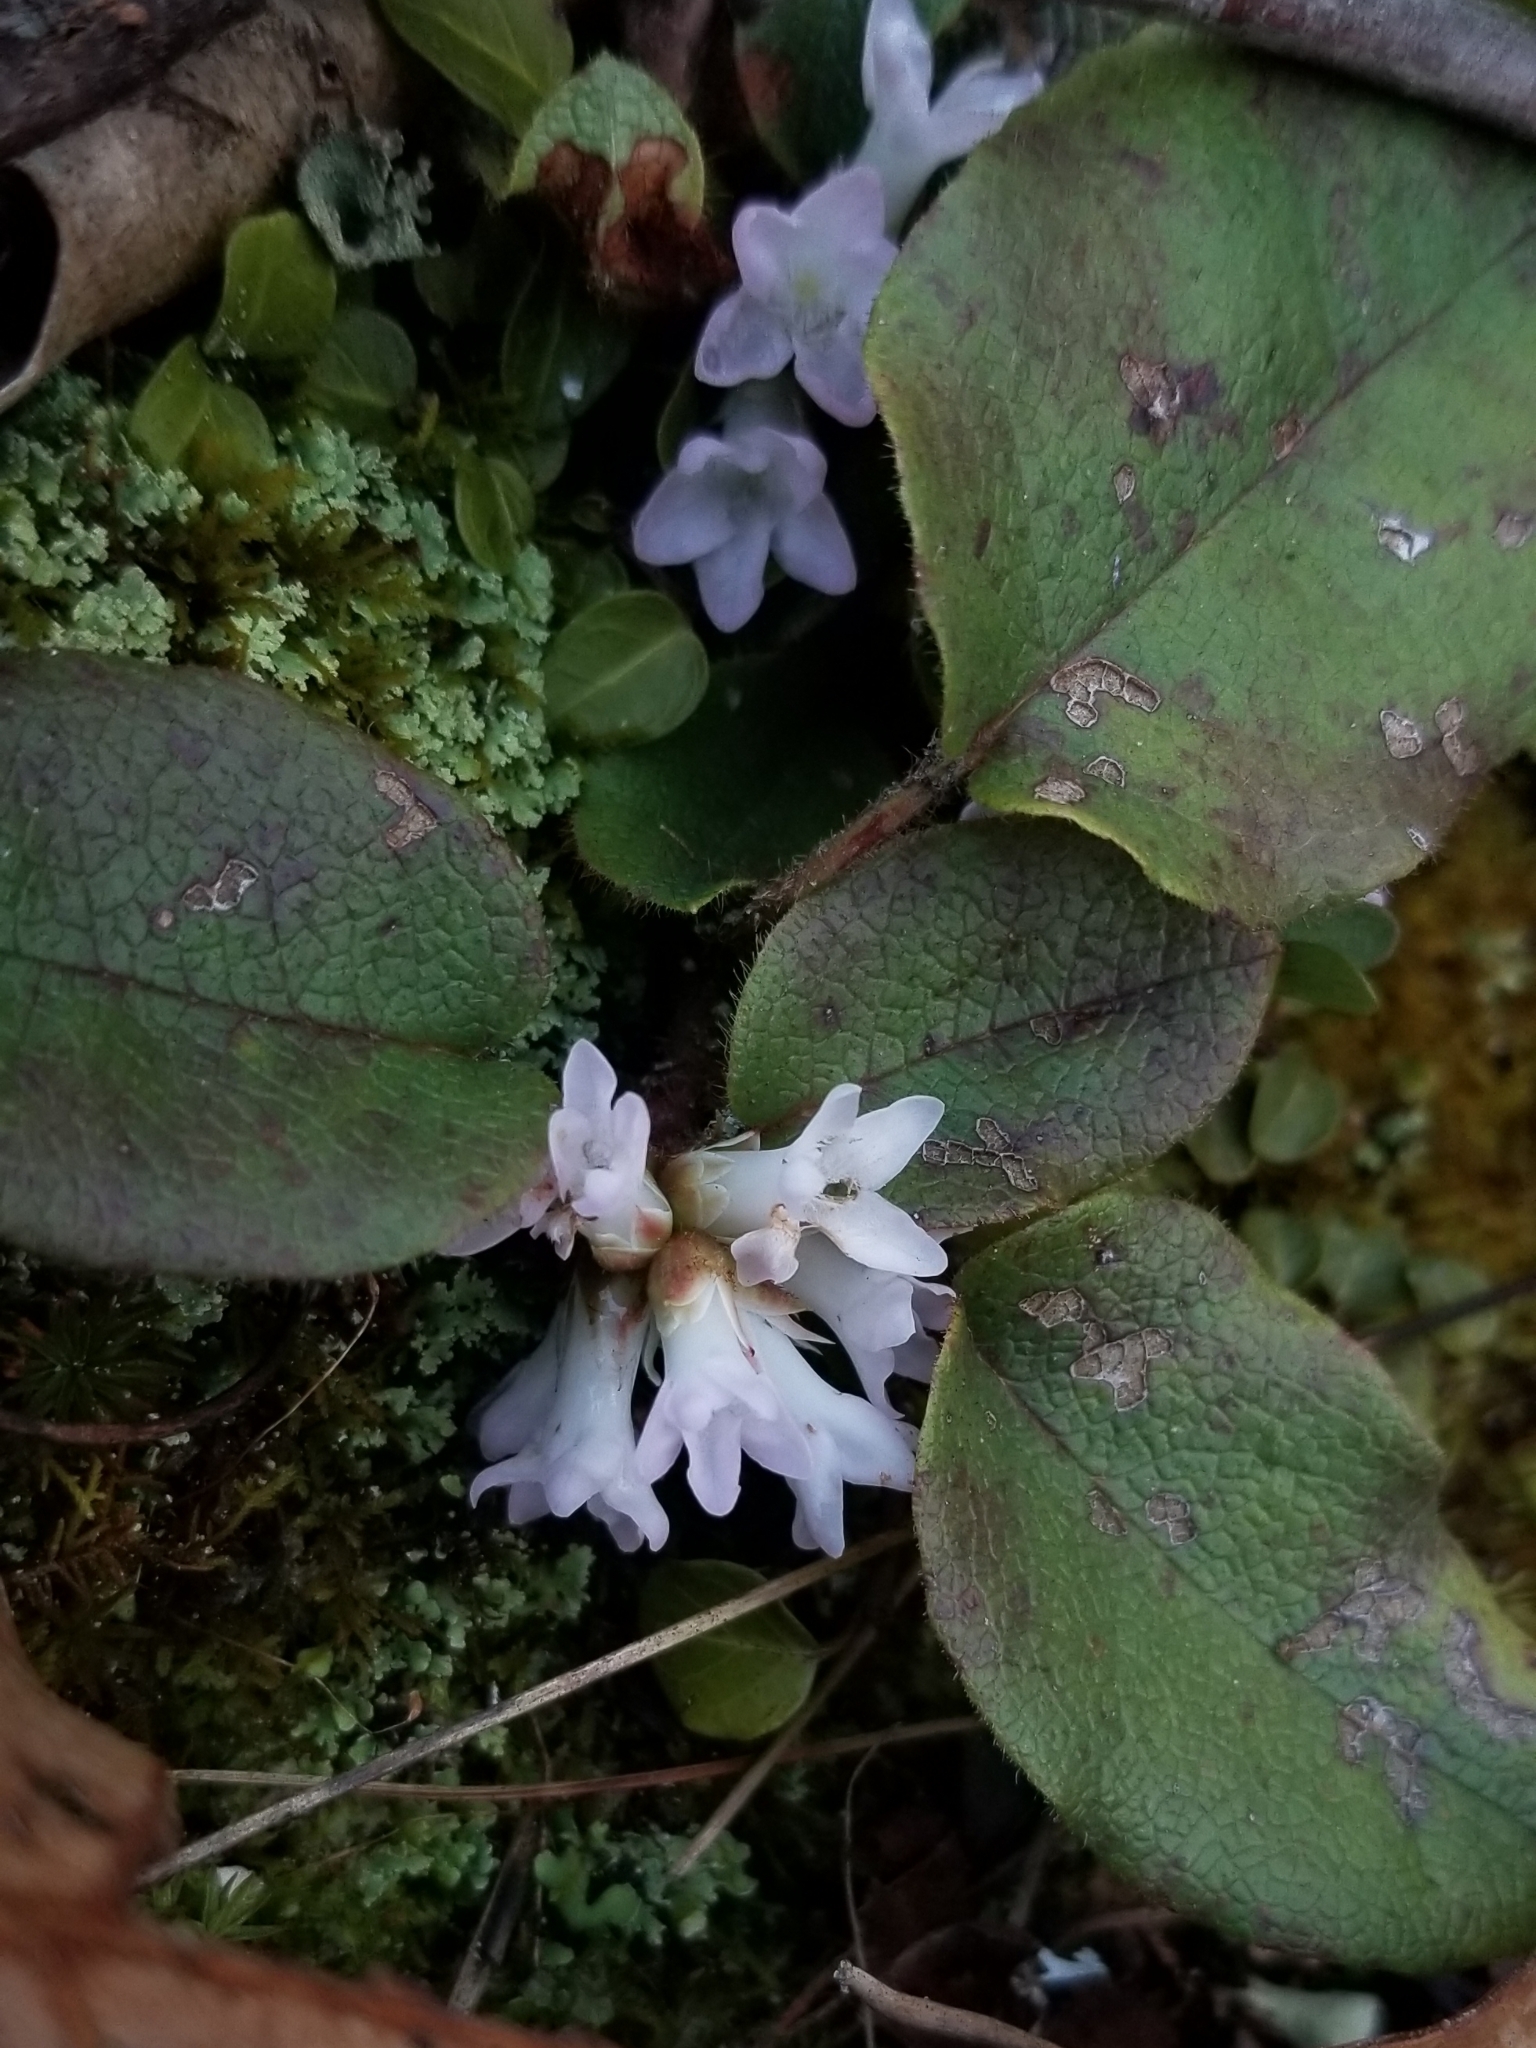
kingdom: Plantae
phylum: Tracheophyta
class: Magnoliopsida
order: Ericales
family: Ericaceae
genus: Epigaea
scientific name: Epigaea repens
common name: Gravelroot
